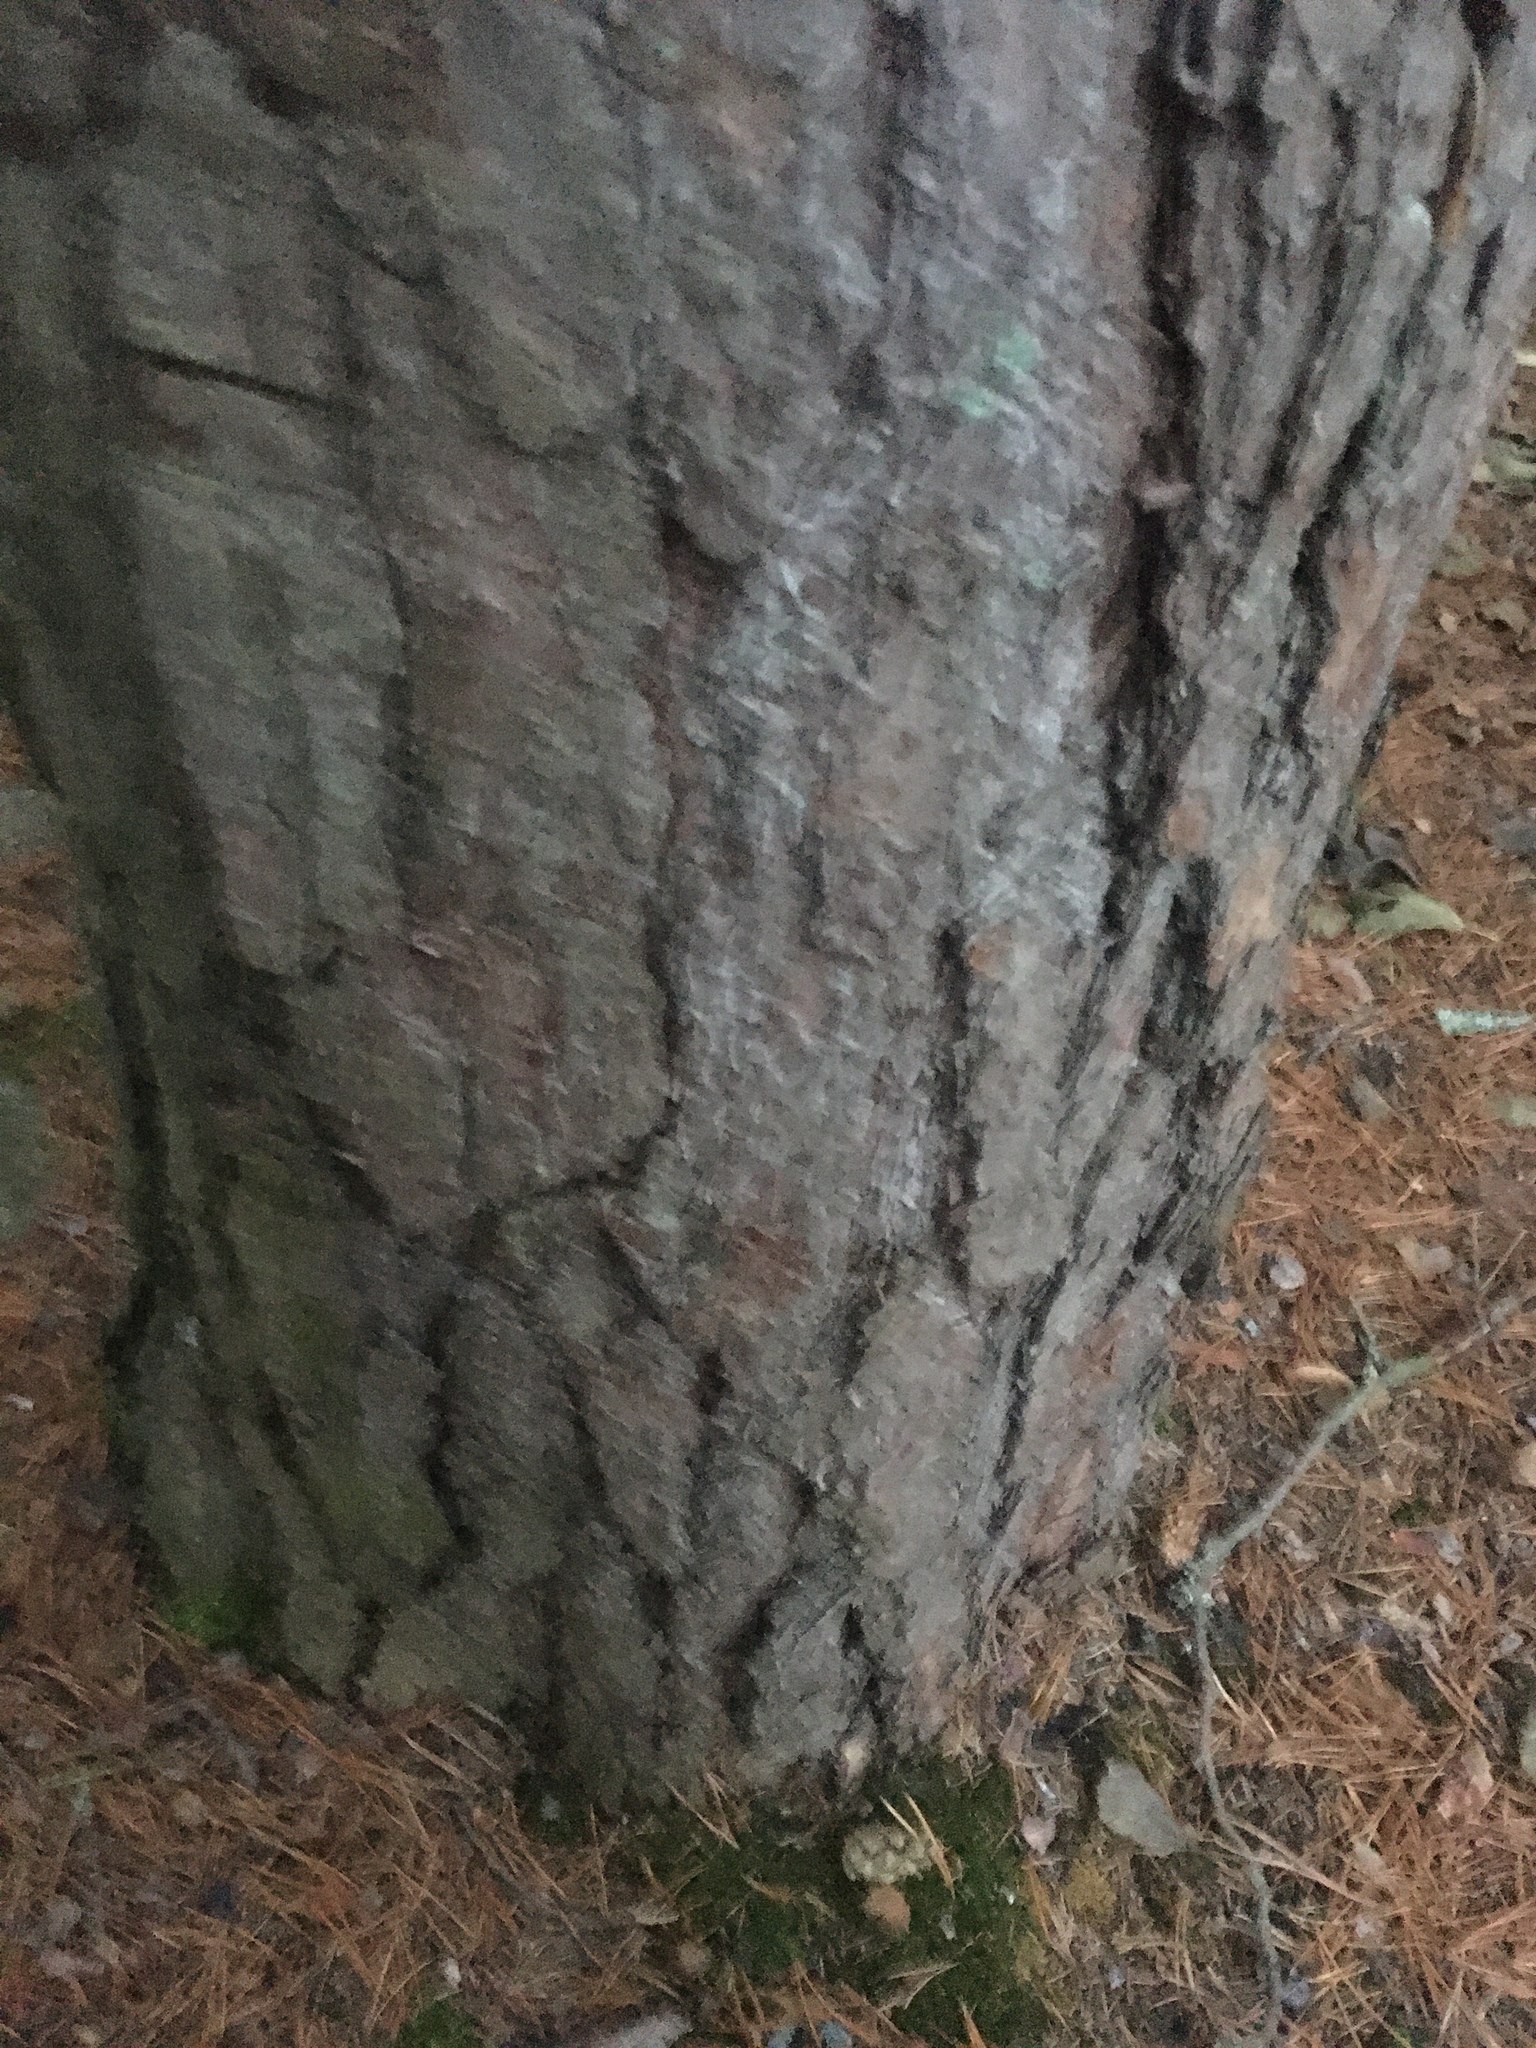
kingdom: Plantae
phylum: Tracheophyta
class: Pinopsida
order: Pinales
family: Pinaceae
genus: Pinus
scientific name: Pinus sylvestris
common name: Scots pine
